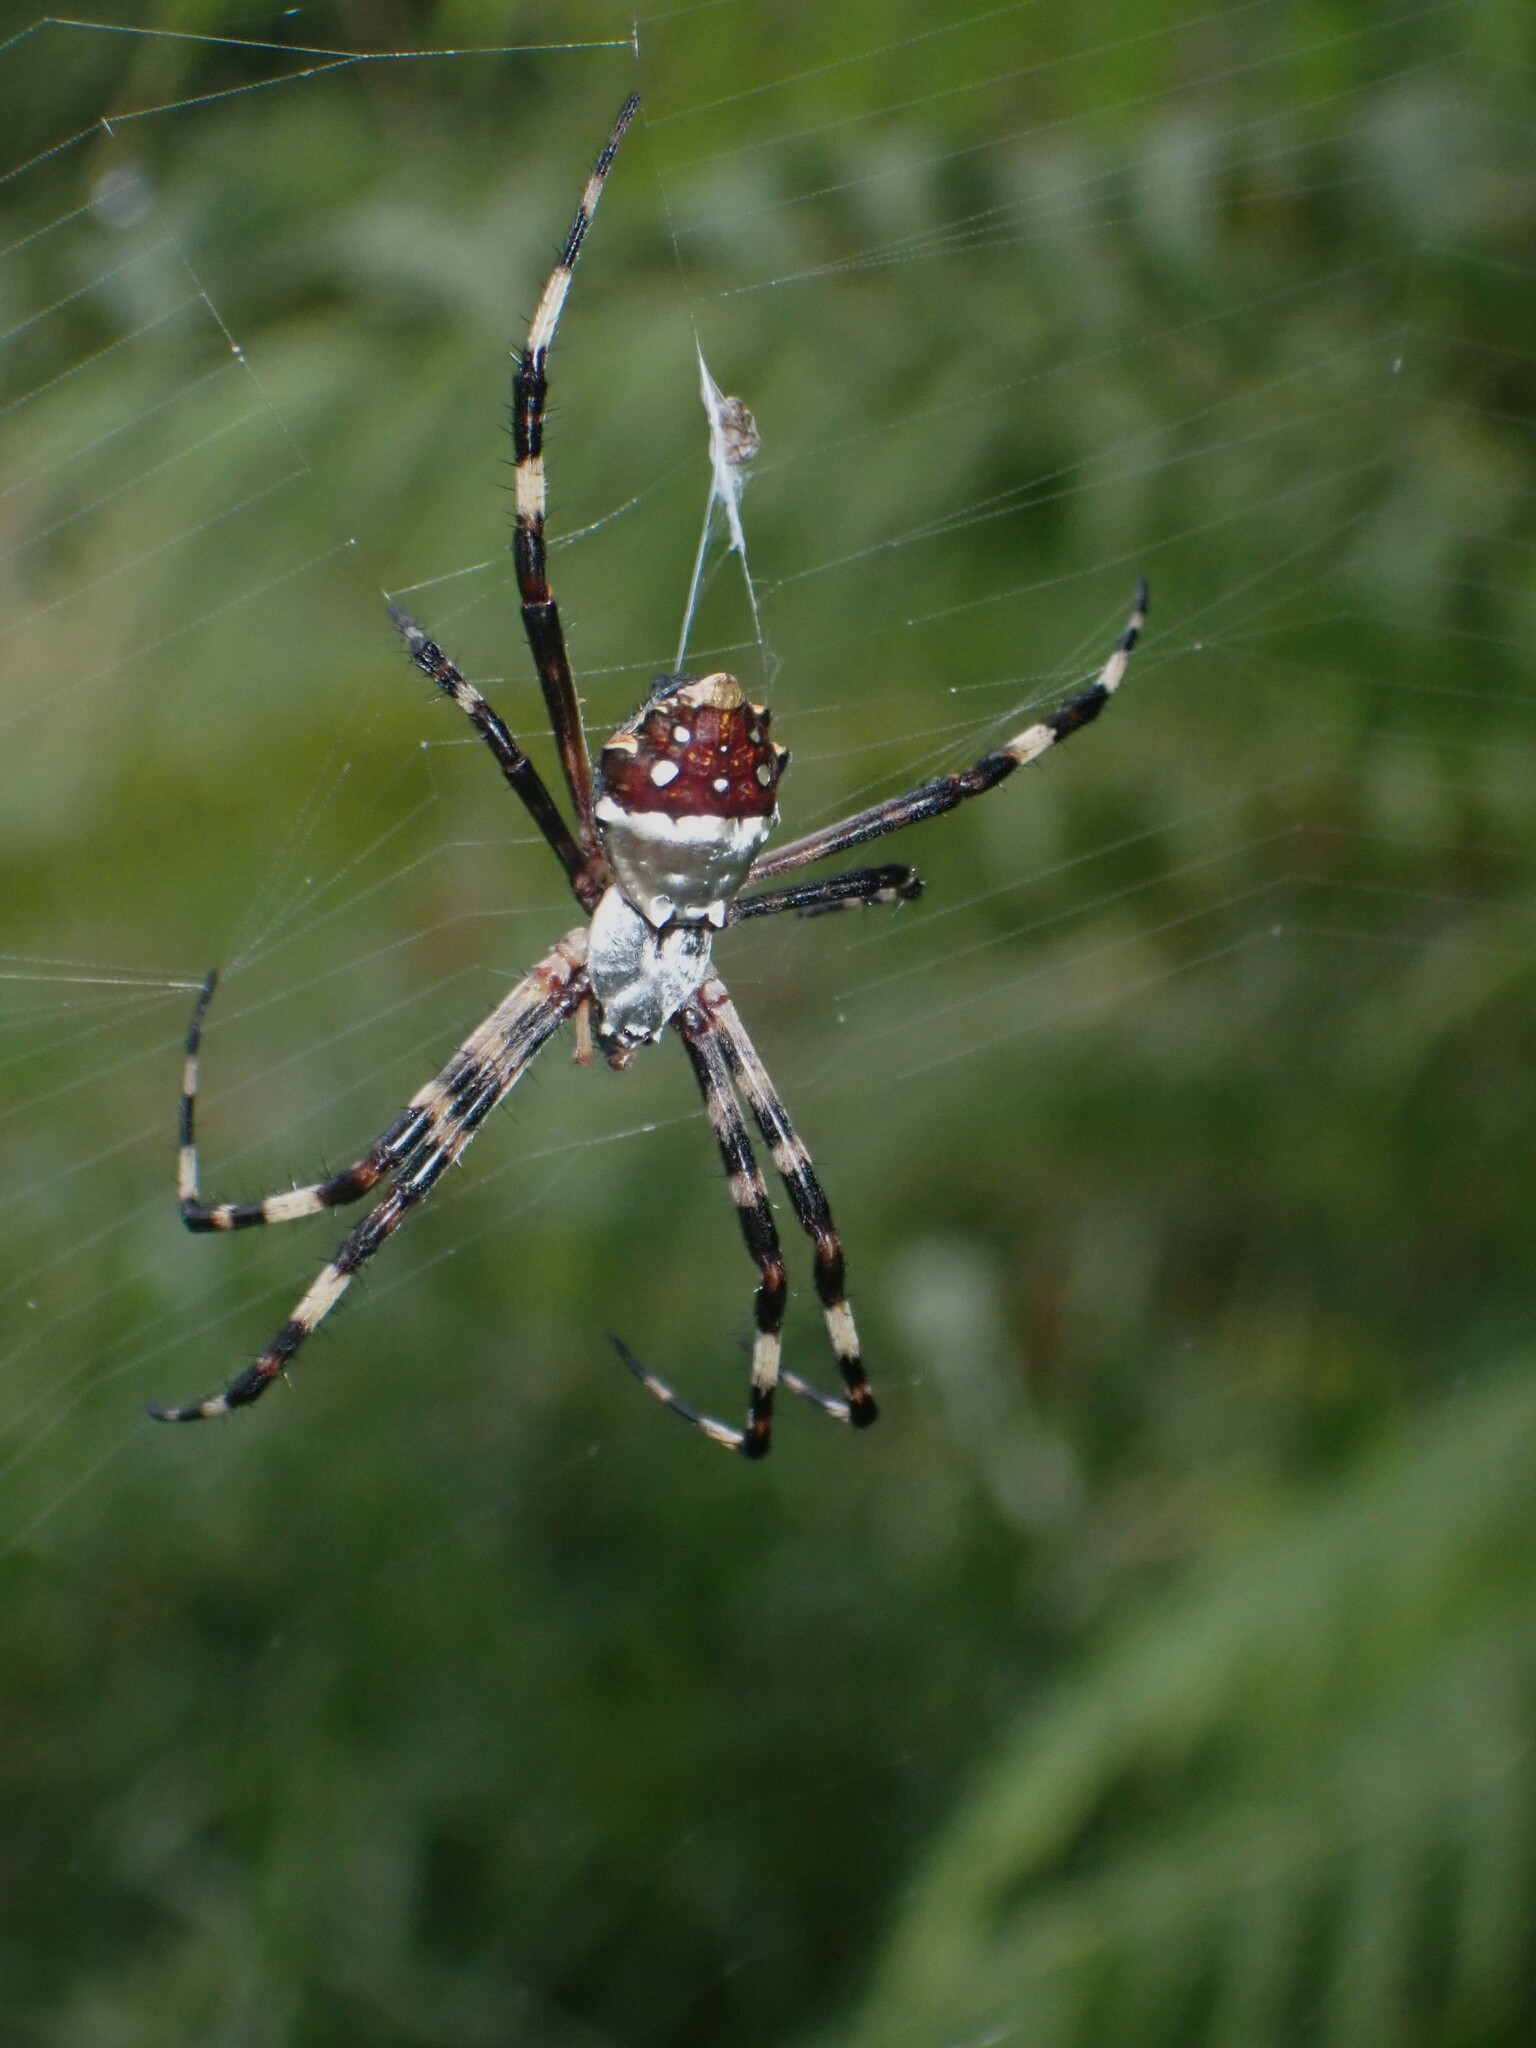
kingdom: Animalia
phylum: Arthropoda
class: Arachnida
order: Araneae
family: Araneidae
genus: Argiope
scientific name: Argiope argentata
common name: Orb weavers
